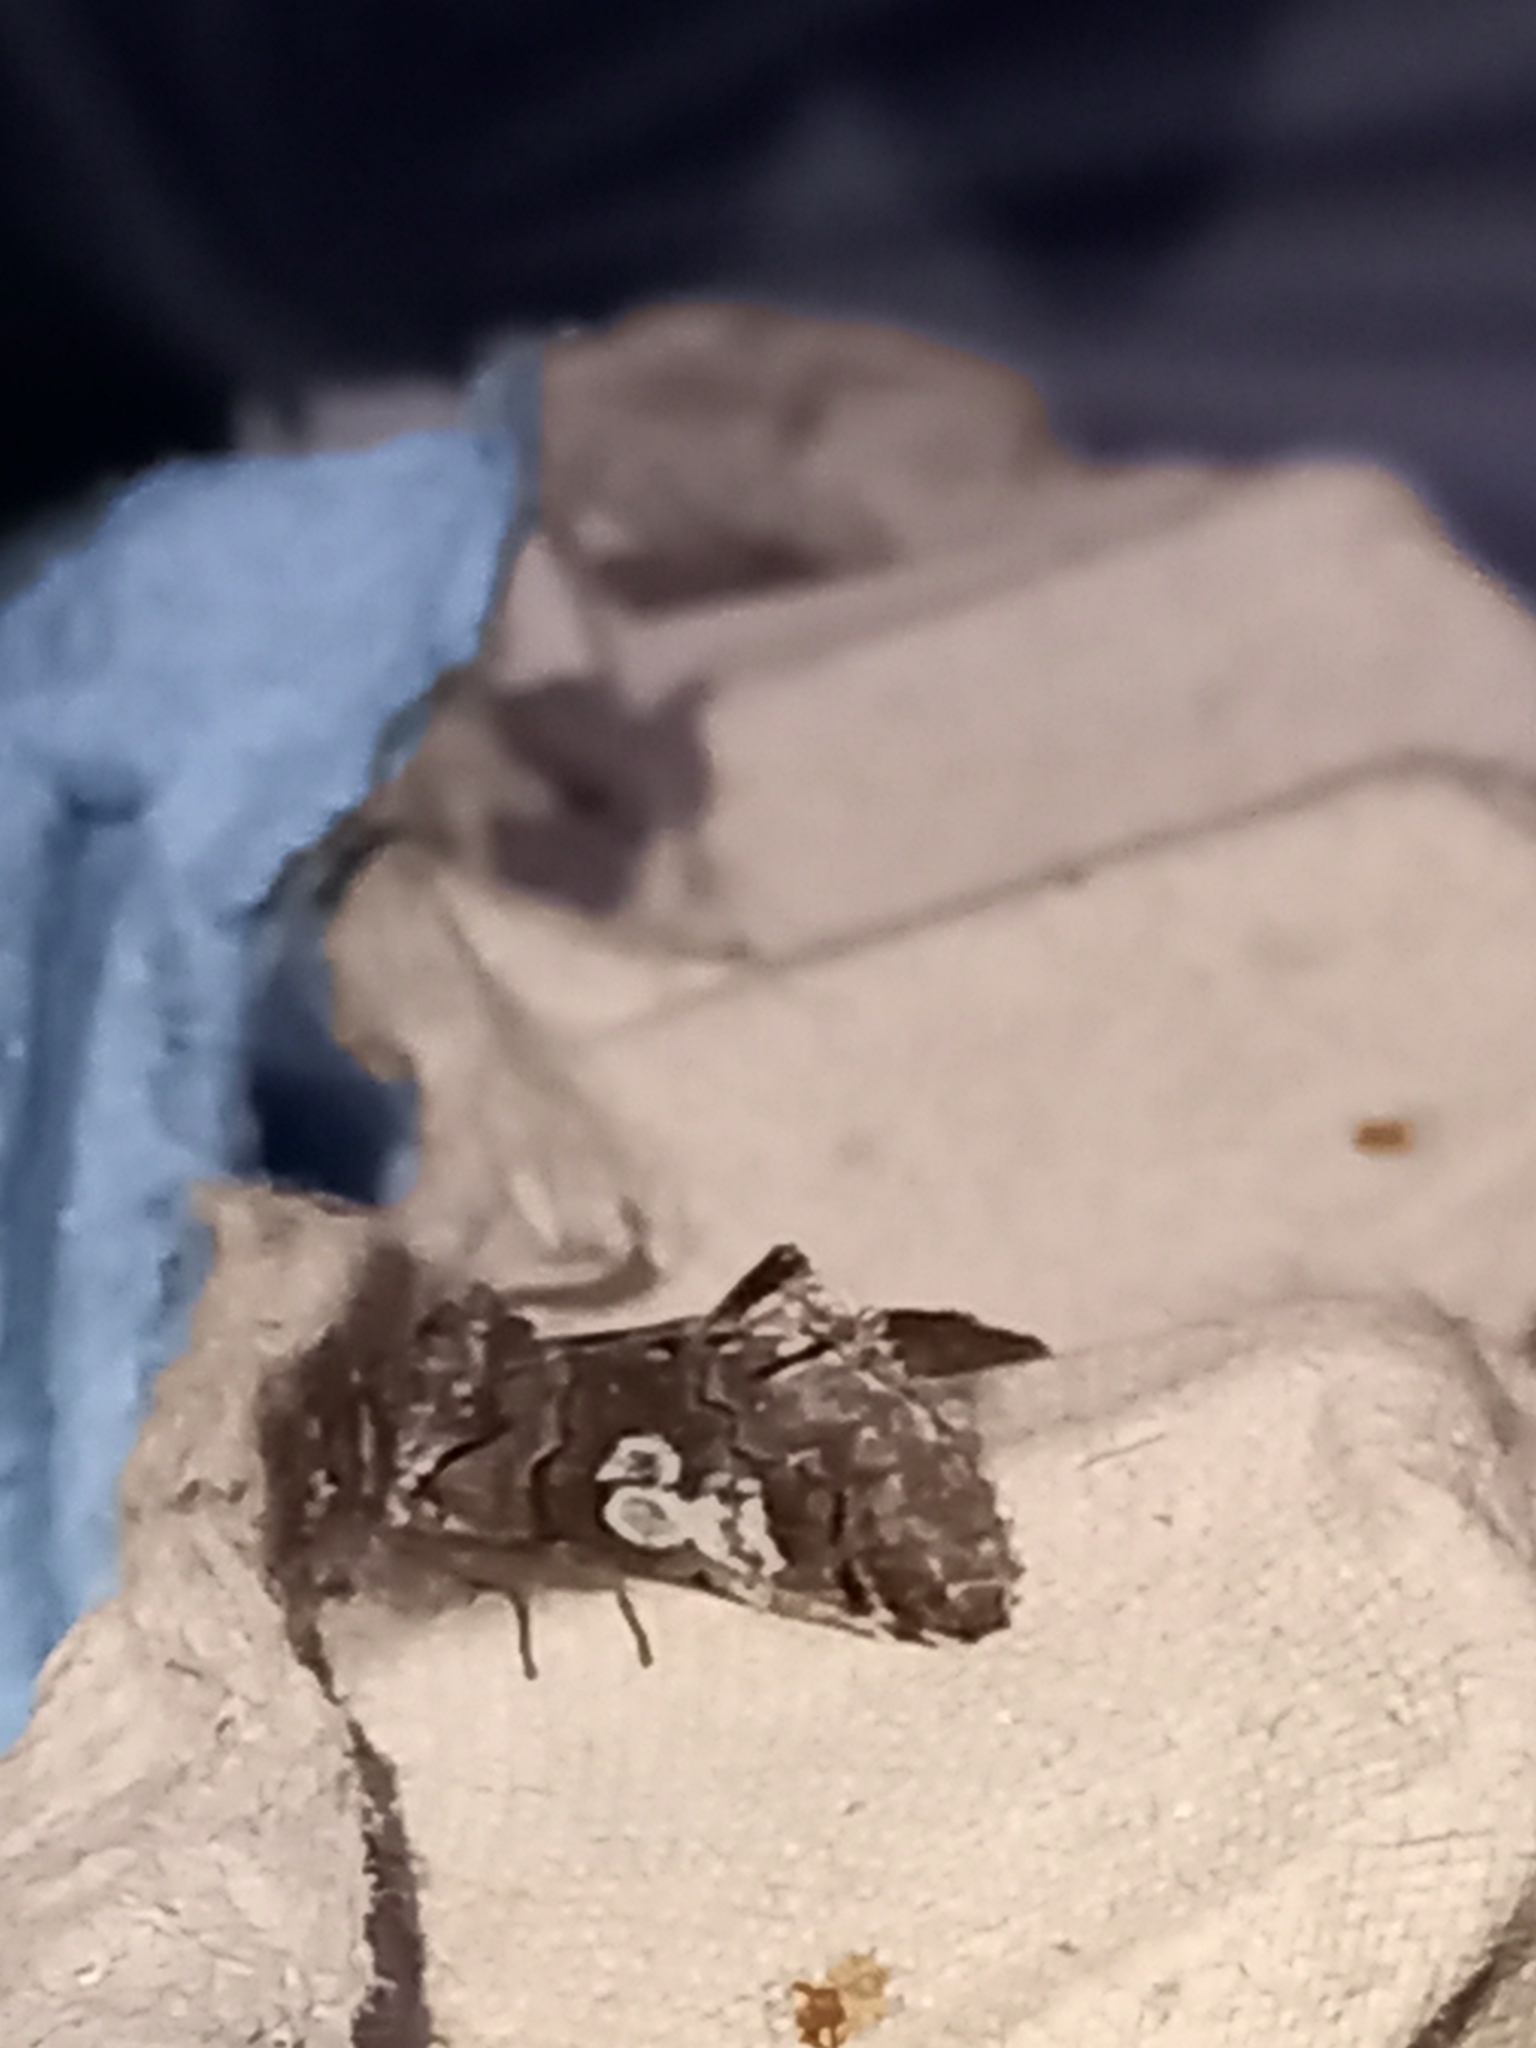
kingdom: Animalia
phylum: Arthropoda
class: Insecta
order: Lepidoptera
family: Noctuidae
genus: Diloba
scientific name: Diloba caeruleocephala
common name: Figure of eight
